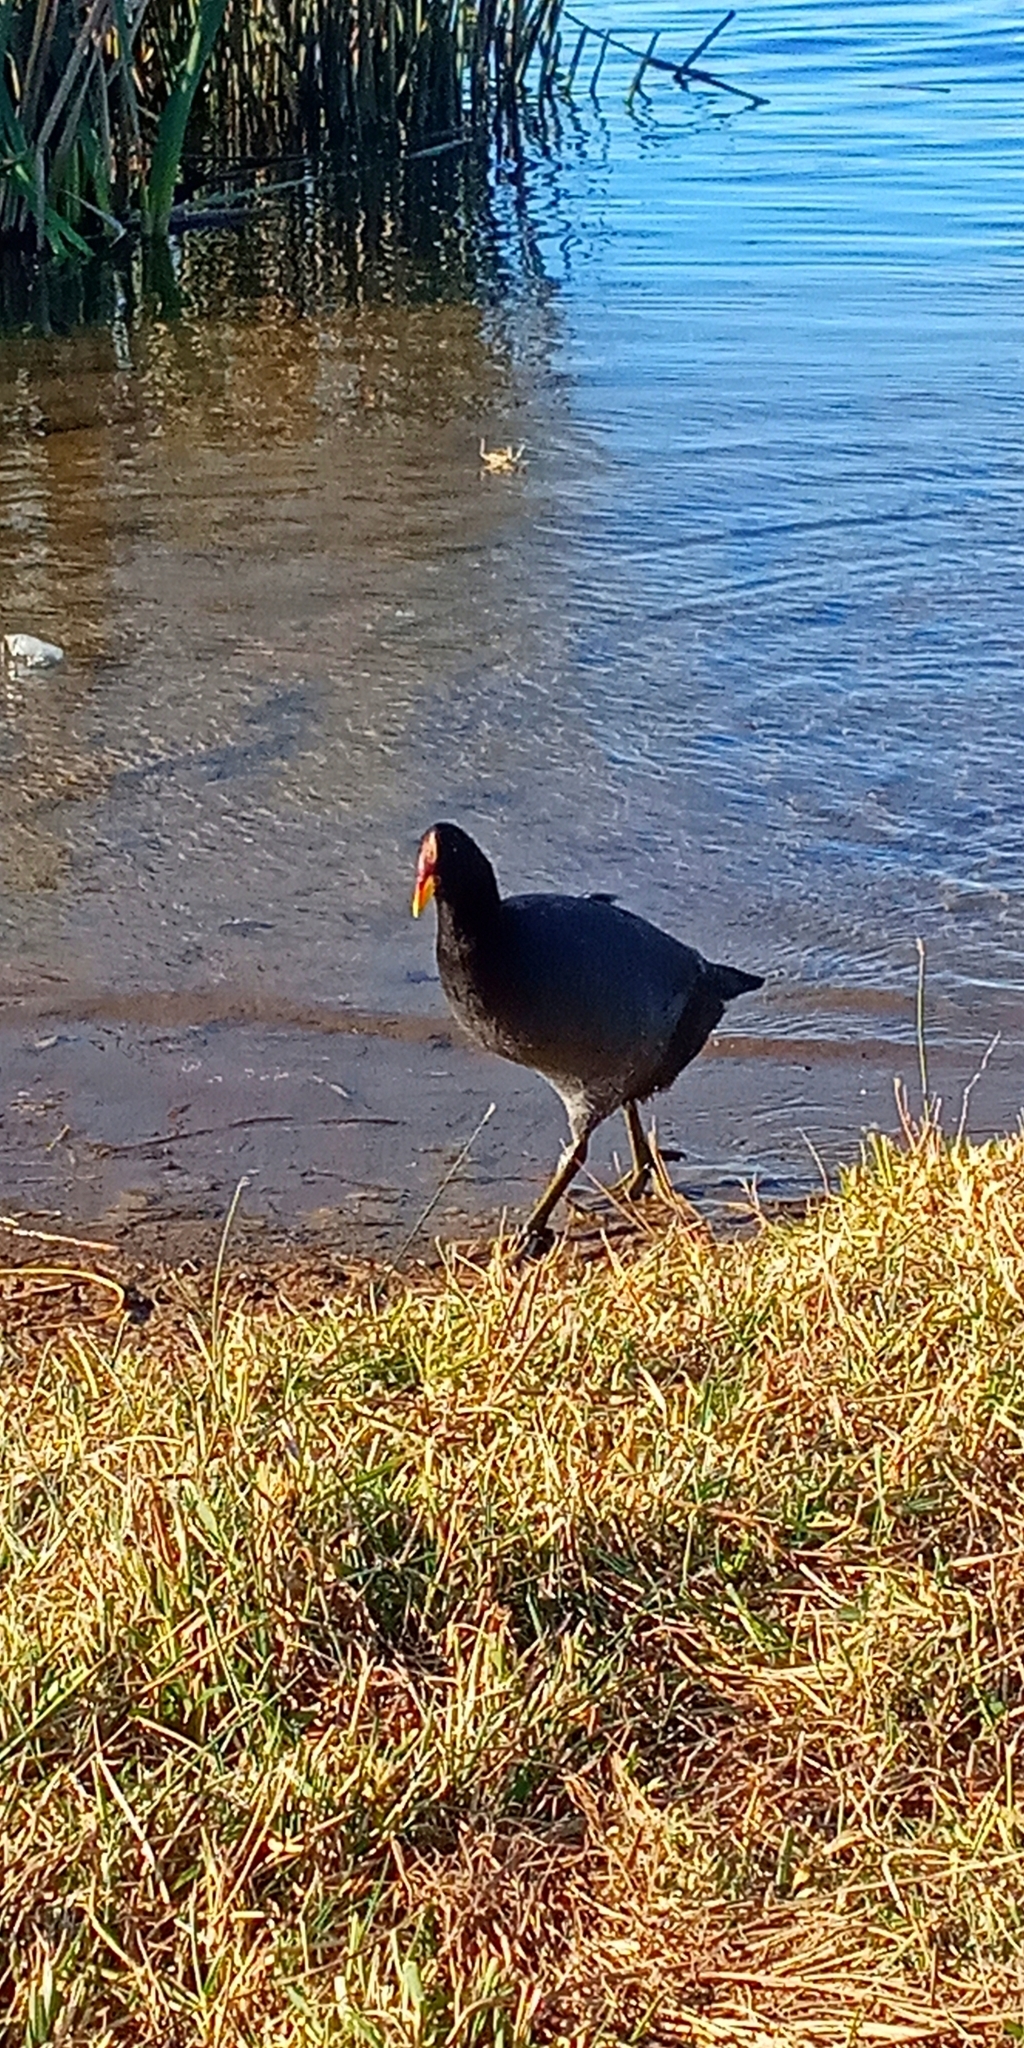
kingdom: Animalia
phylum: Chordata
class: Aves
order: Gruiformes
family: Rallidae
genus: Fulica
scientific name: Fulica rufifrons
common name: Red-fronted coot
